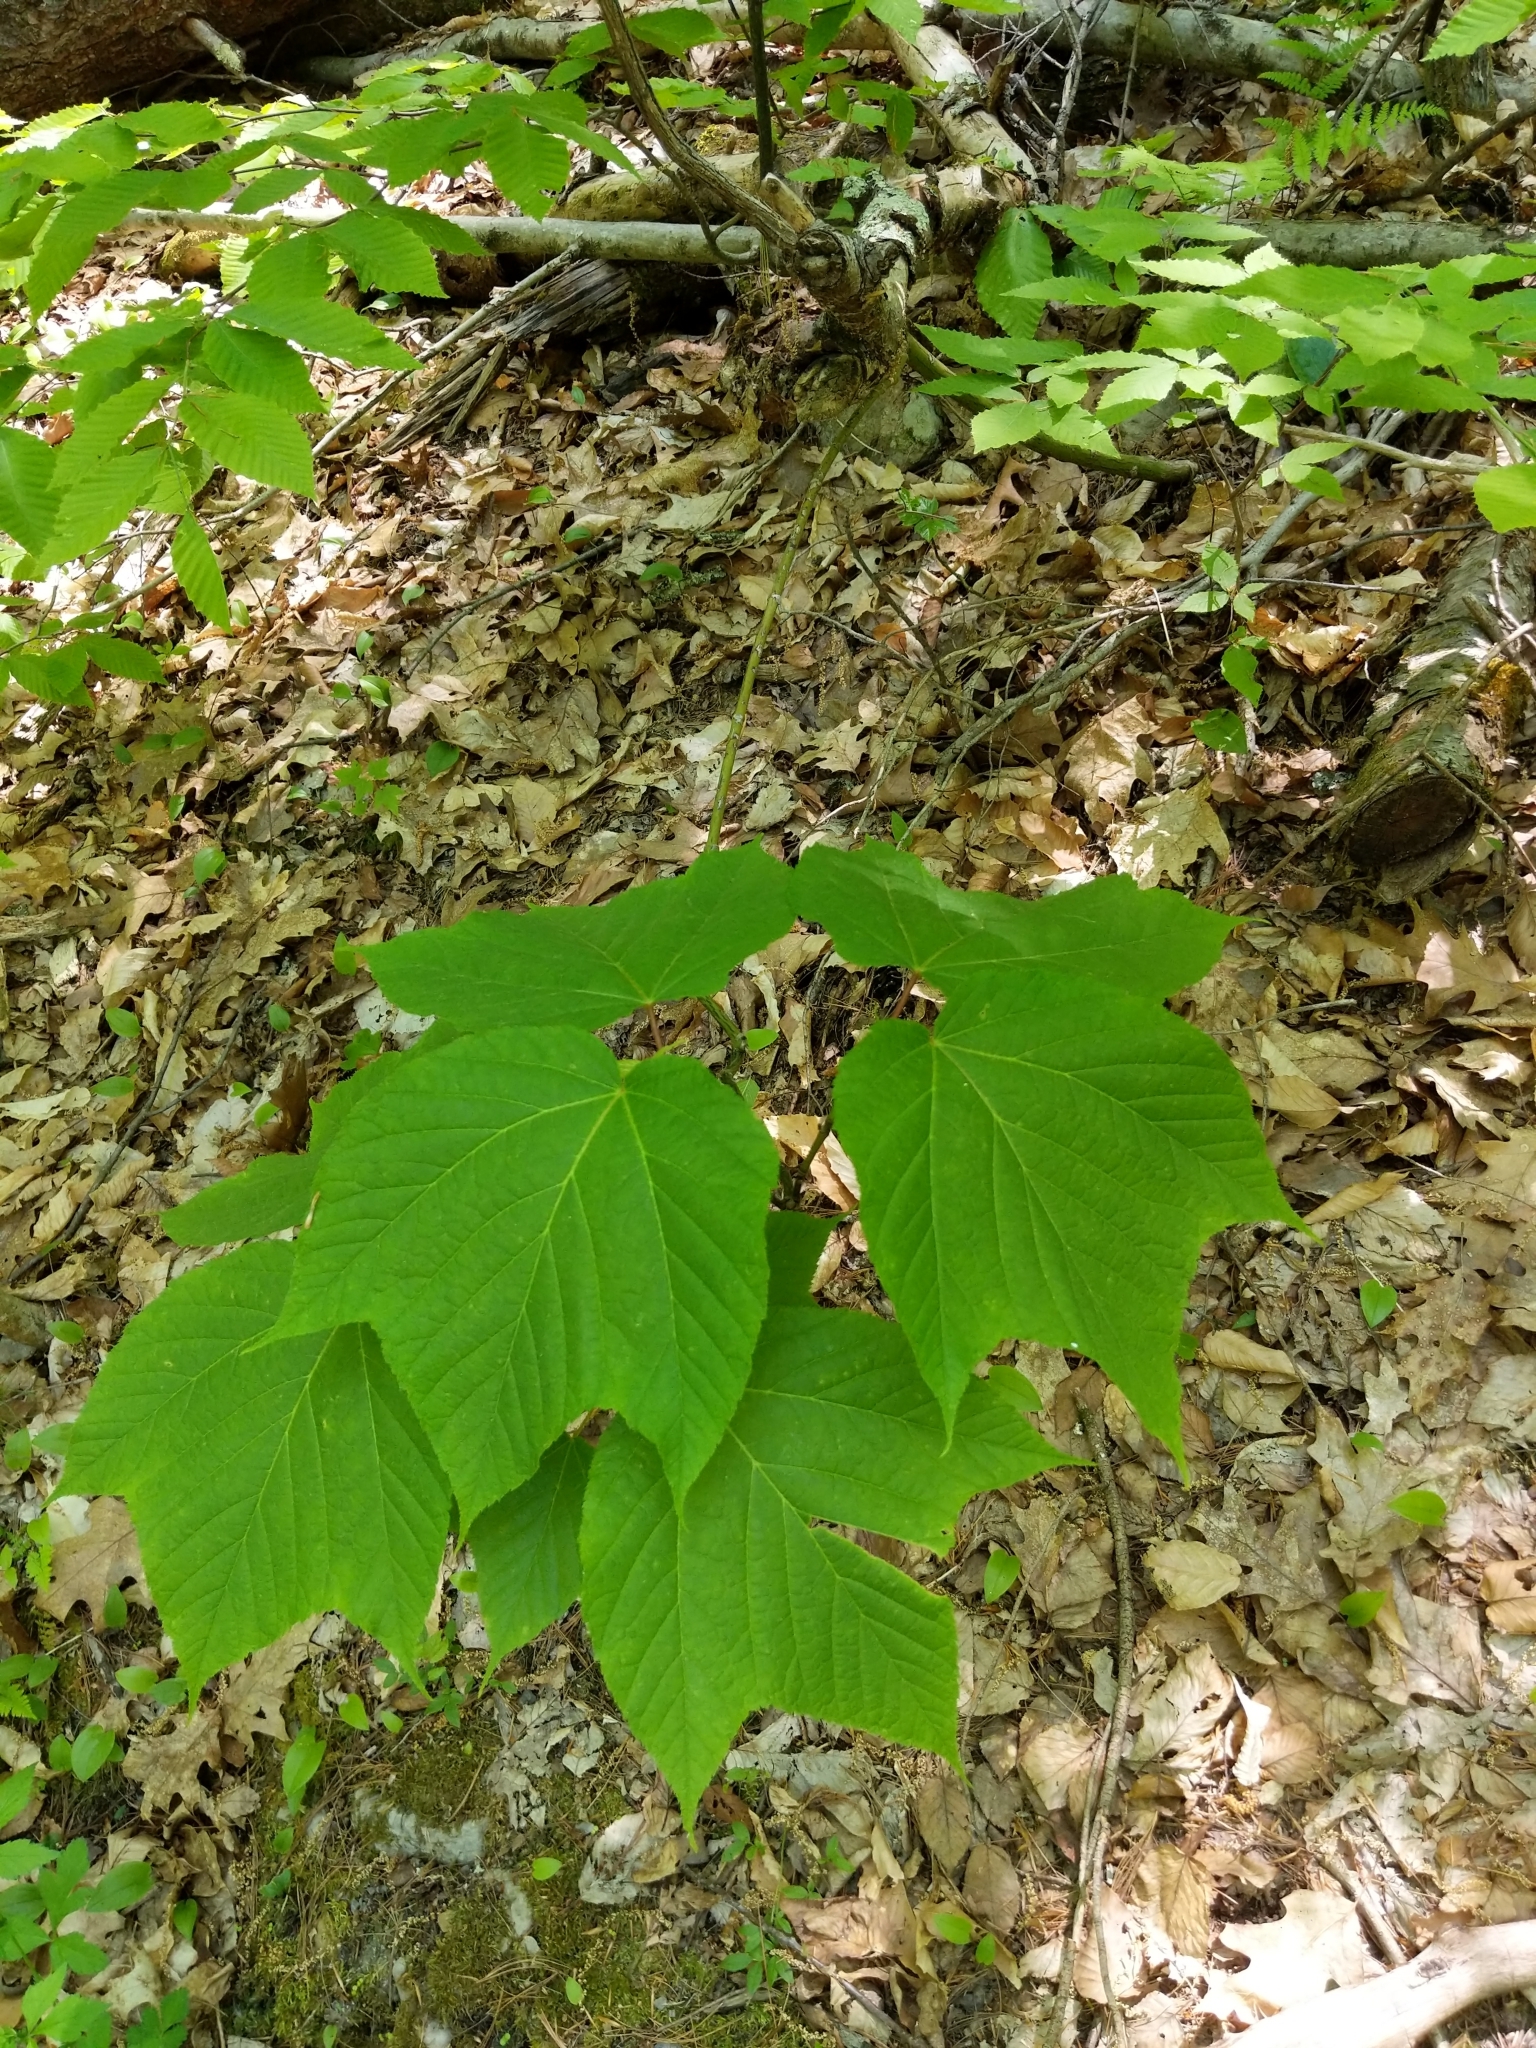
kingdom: Plantae
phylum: Tracheophyta
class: Magnoliopsida
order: Sapindales
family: Sapindaceae
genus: Acer
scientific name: Acer pensylvanicum
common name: Moosewood
